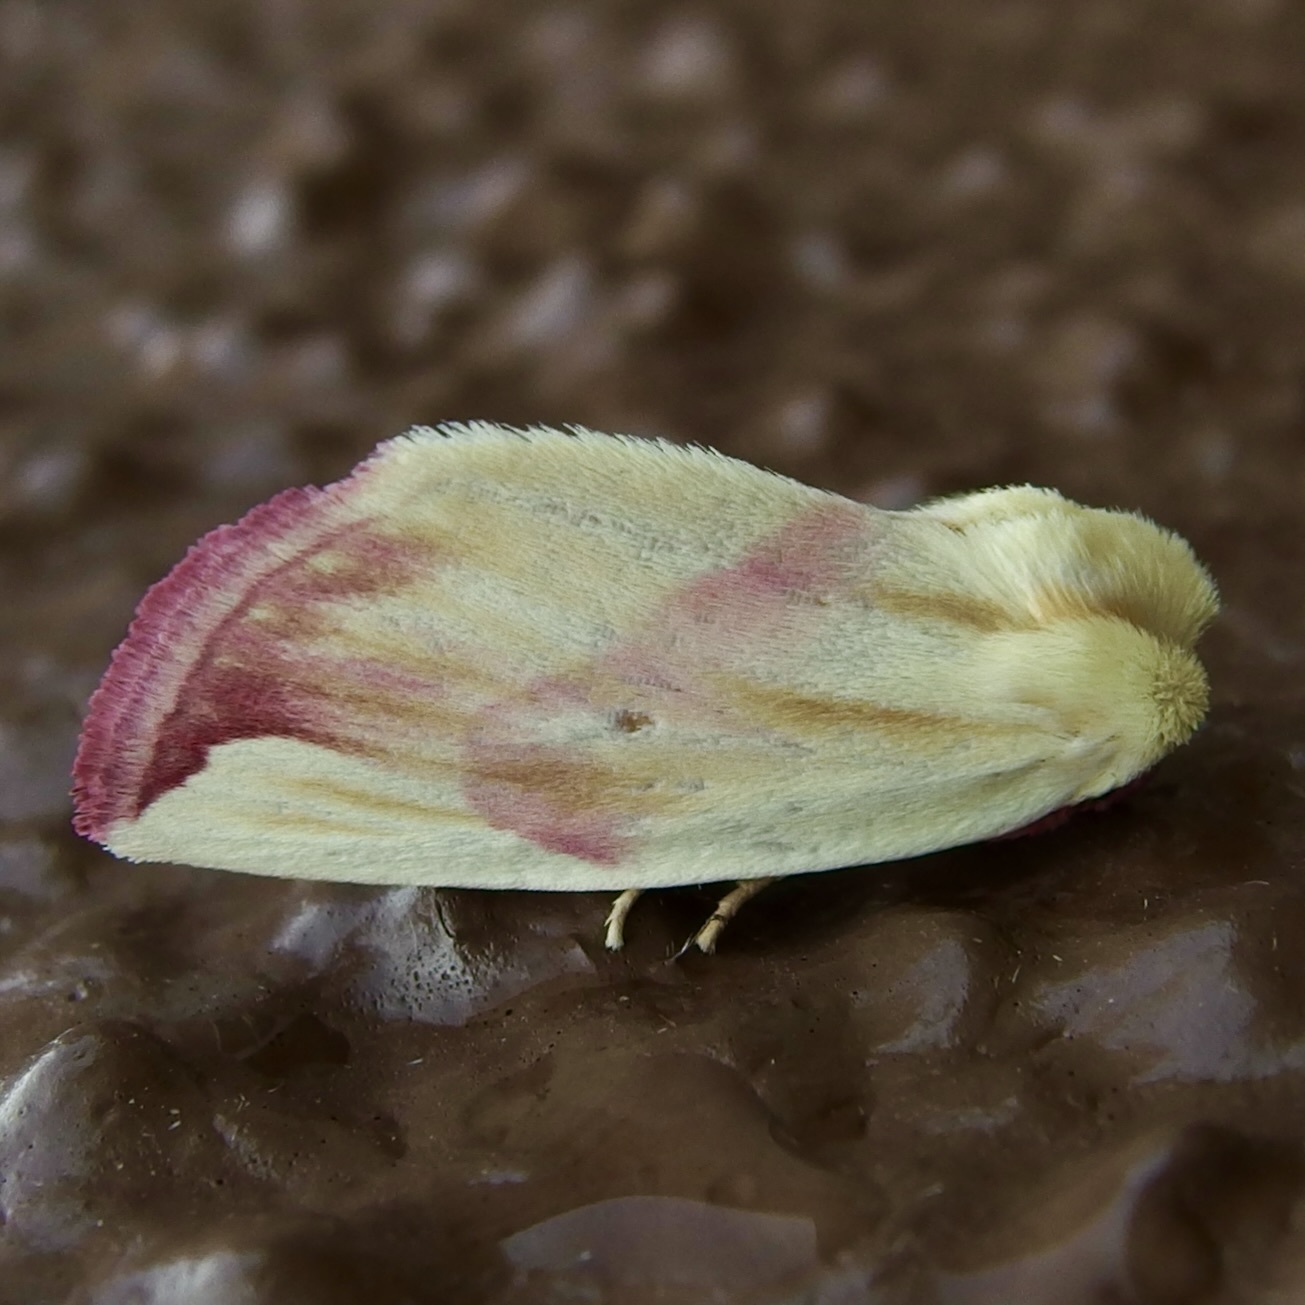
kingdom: Animalia
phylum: Arthropoda
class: Insecta
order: Lepidoptera
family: Noctuidae
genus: Thurberiphaga
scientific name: Thurberiphaga diffusa
